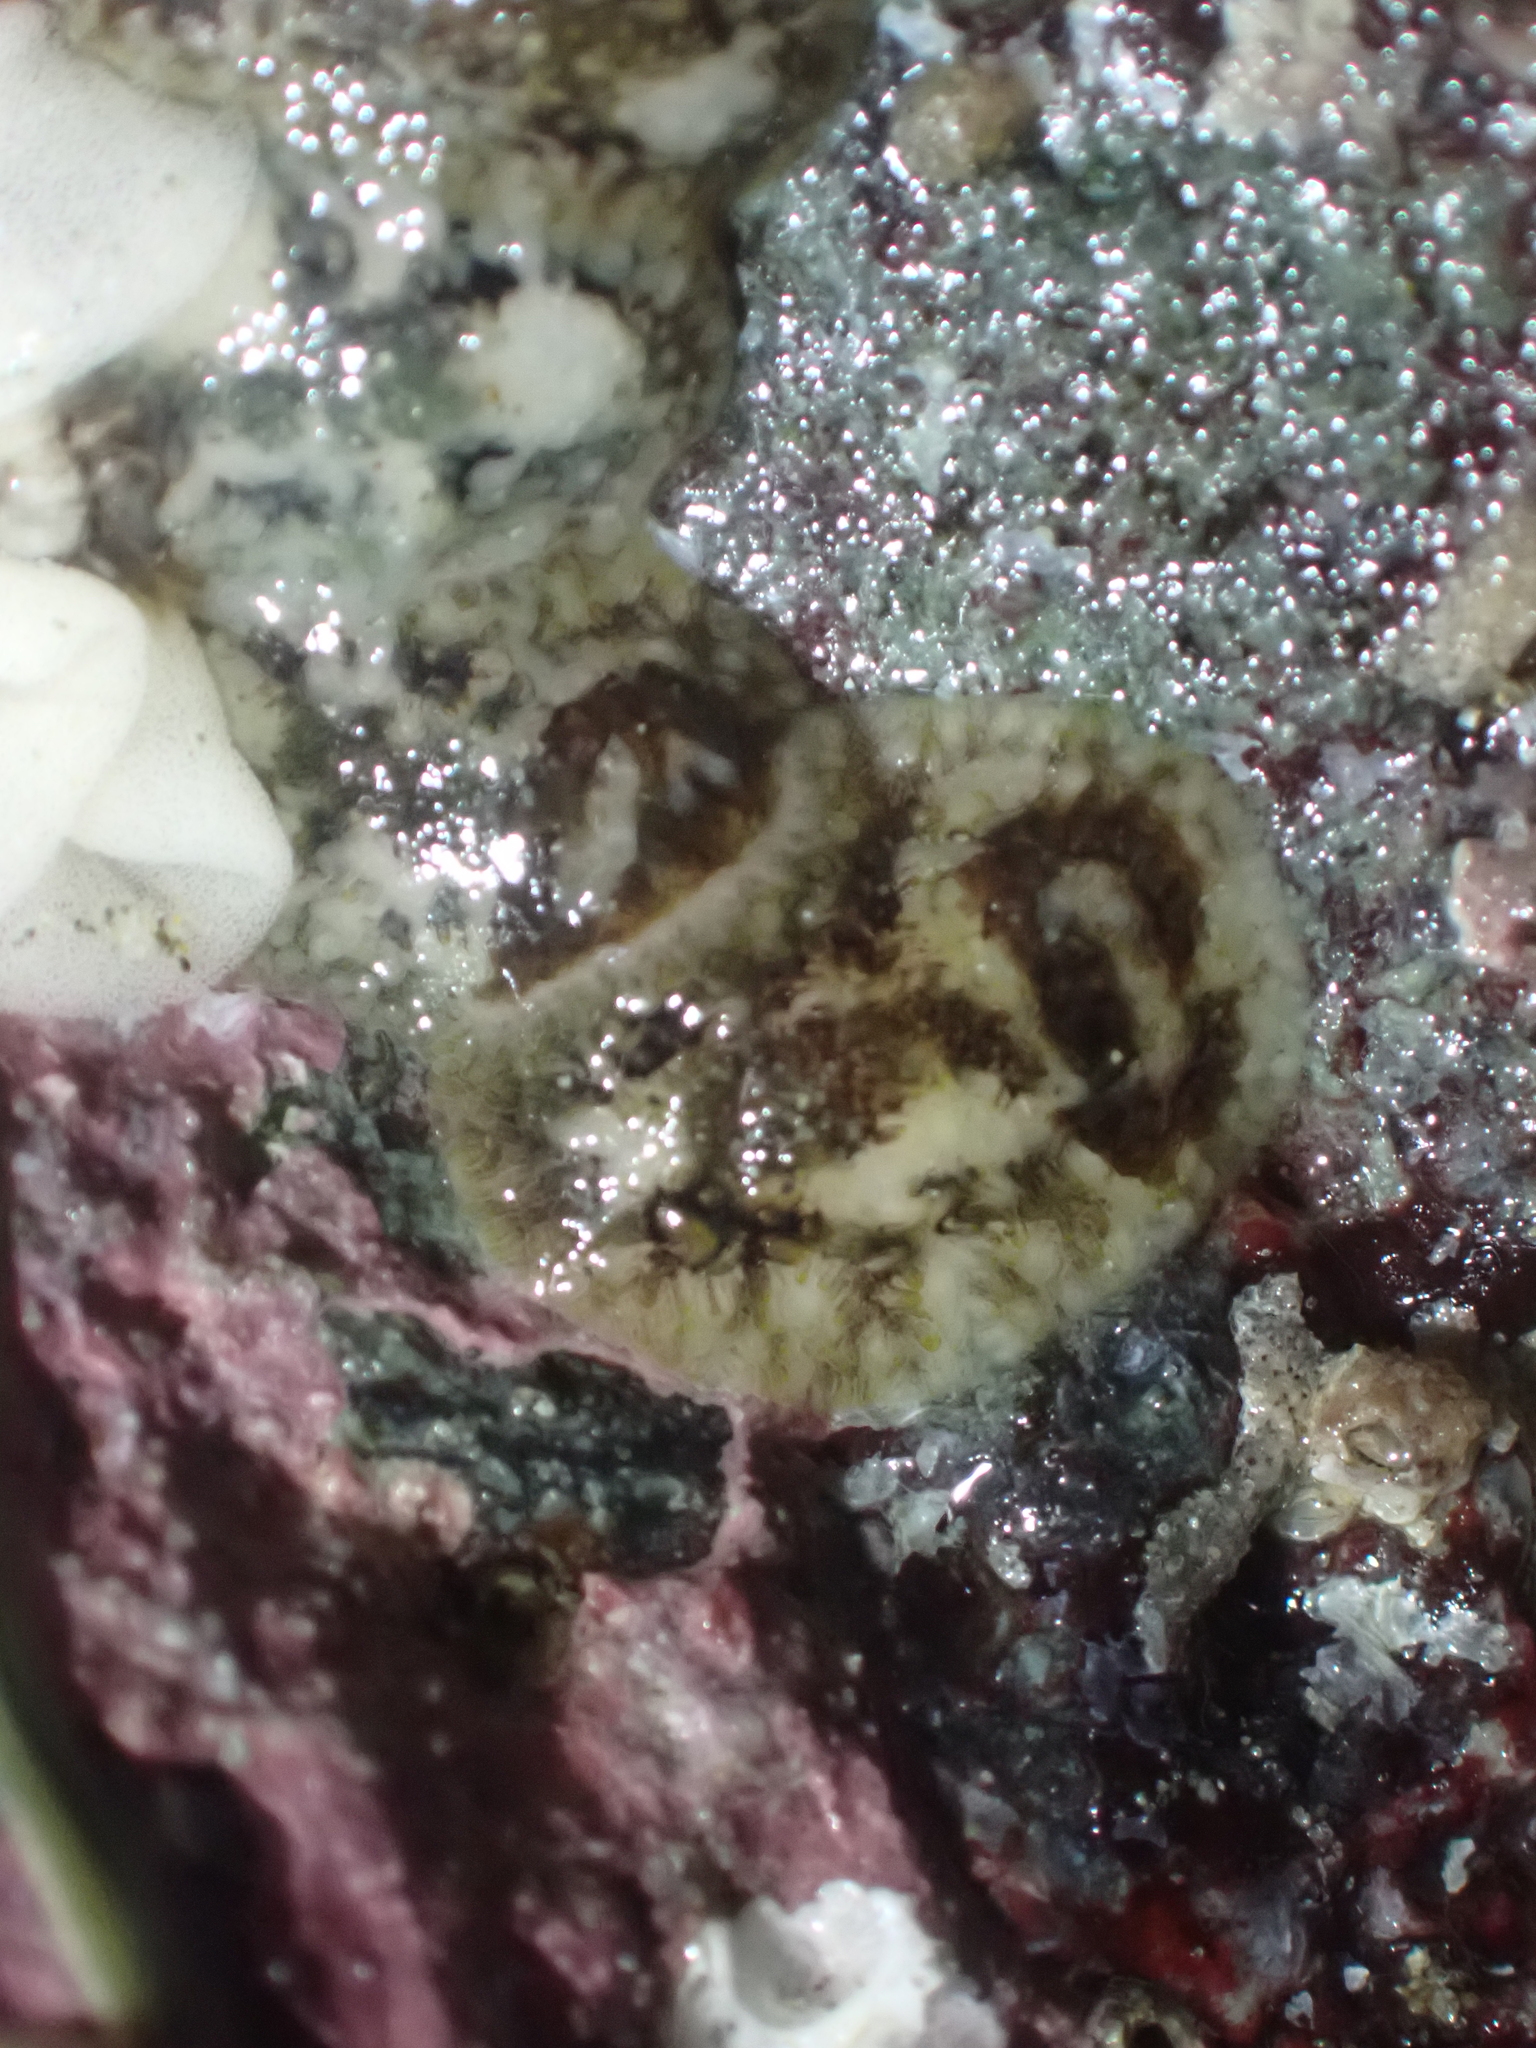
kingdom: Animalia
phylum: Mollusca
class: Gastropoda
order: Nudibranchia
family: Onchidorididae
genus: Onchidoris
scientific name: Onchidoris bilamellata
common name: Barnacle-eating onchidoris
